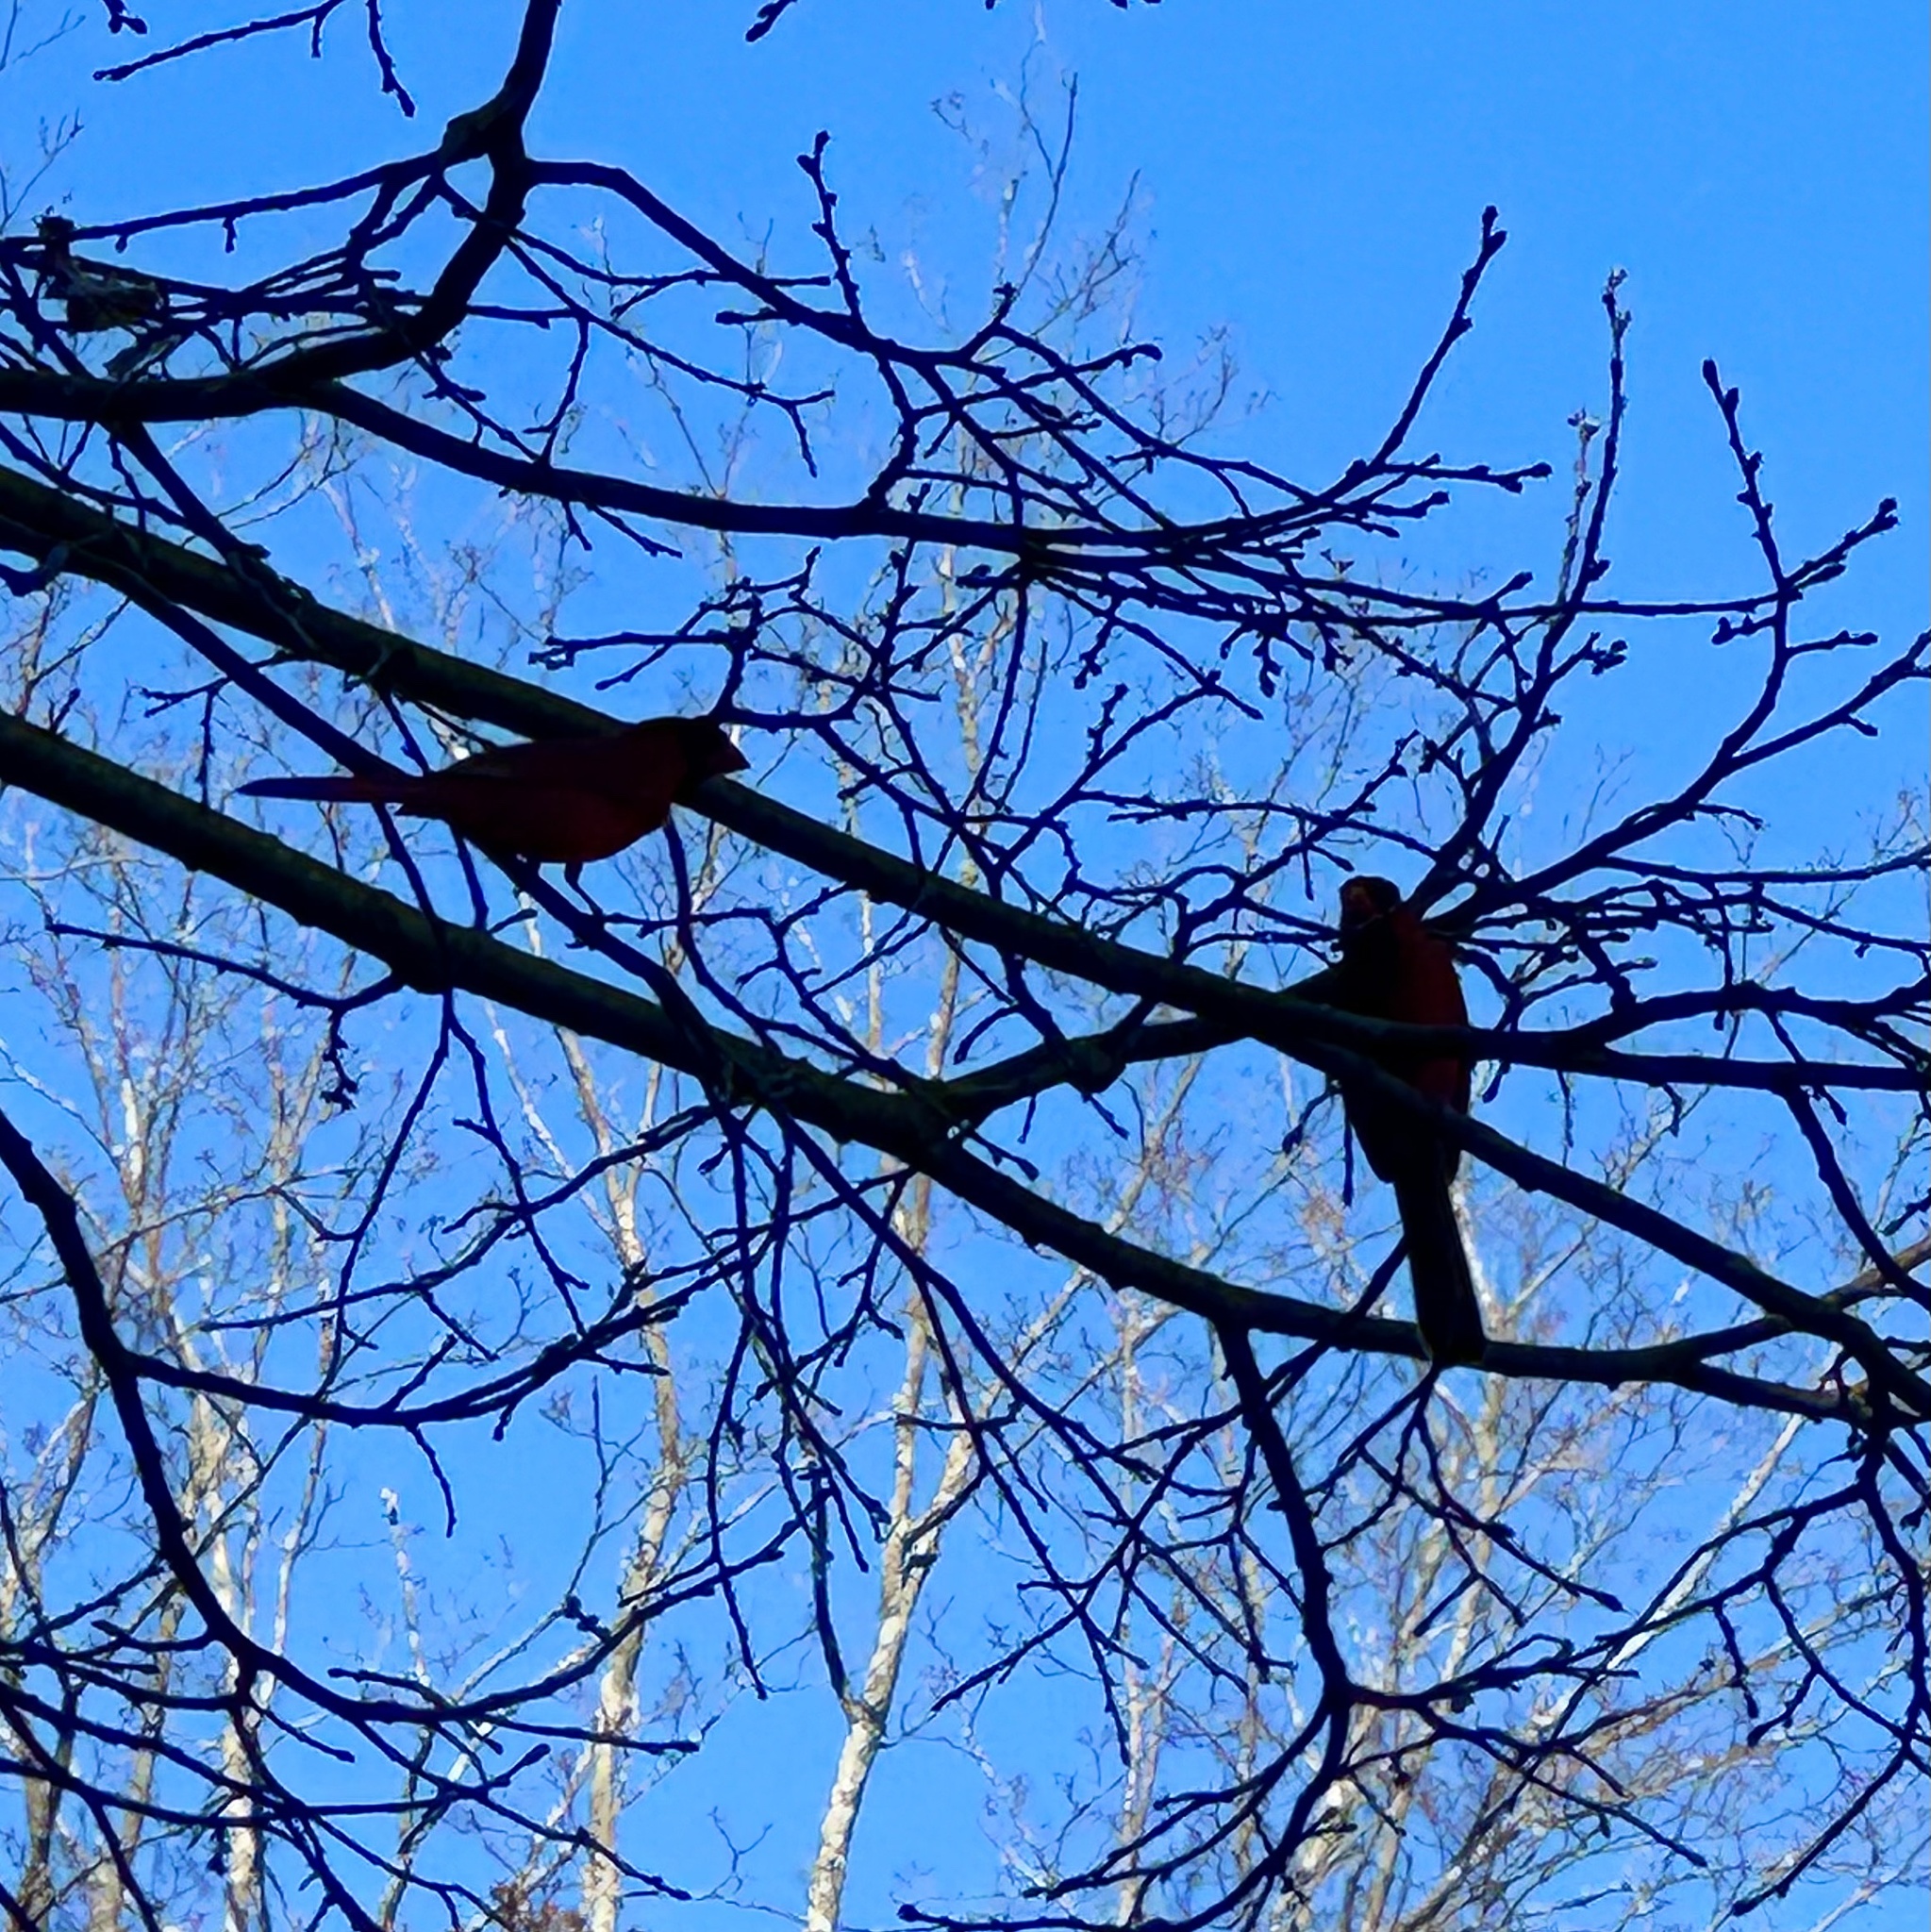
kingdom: Animalia
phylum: Chordata
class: Aves
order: Passeriformes
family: Cardinalidae
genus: Cardinalis
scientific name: Cardinalis cardinalis
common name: Northern cardinal
